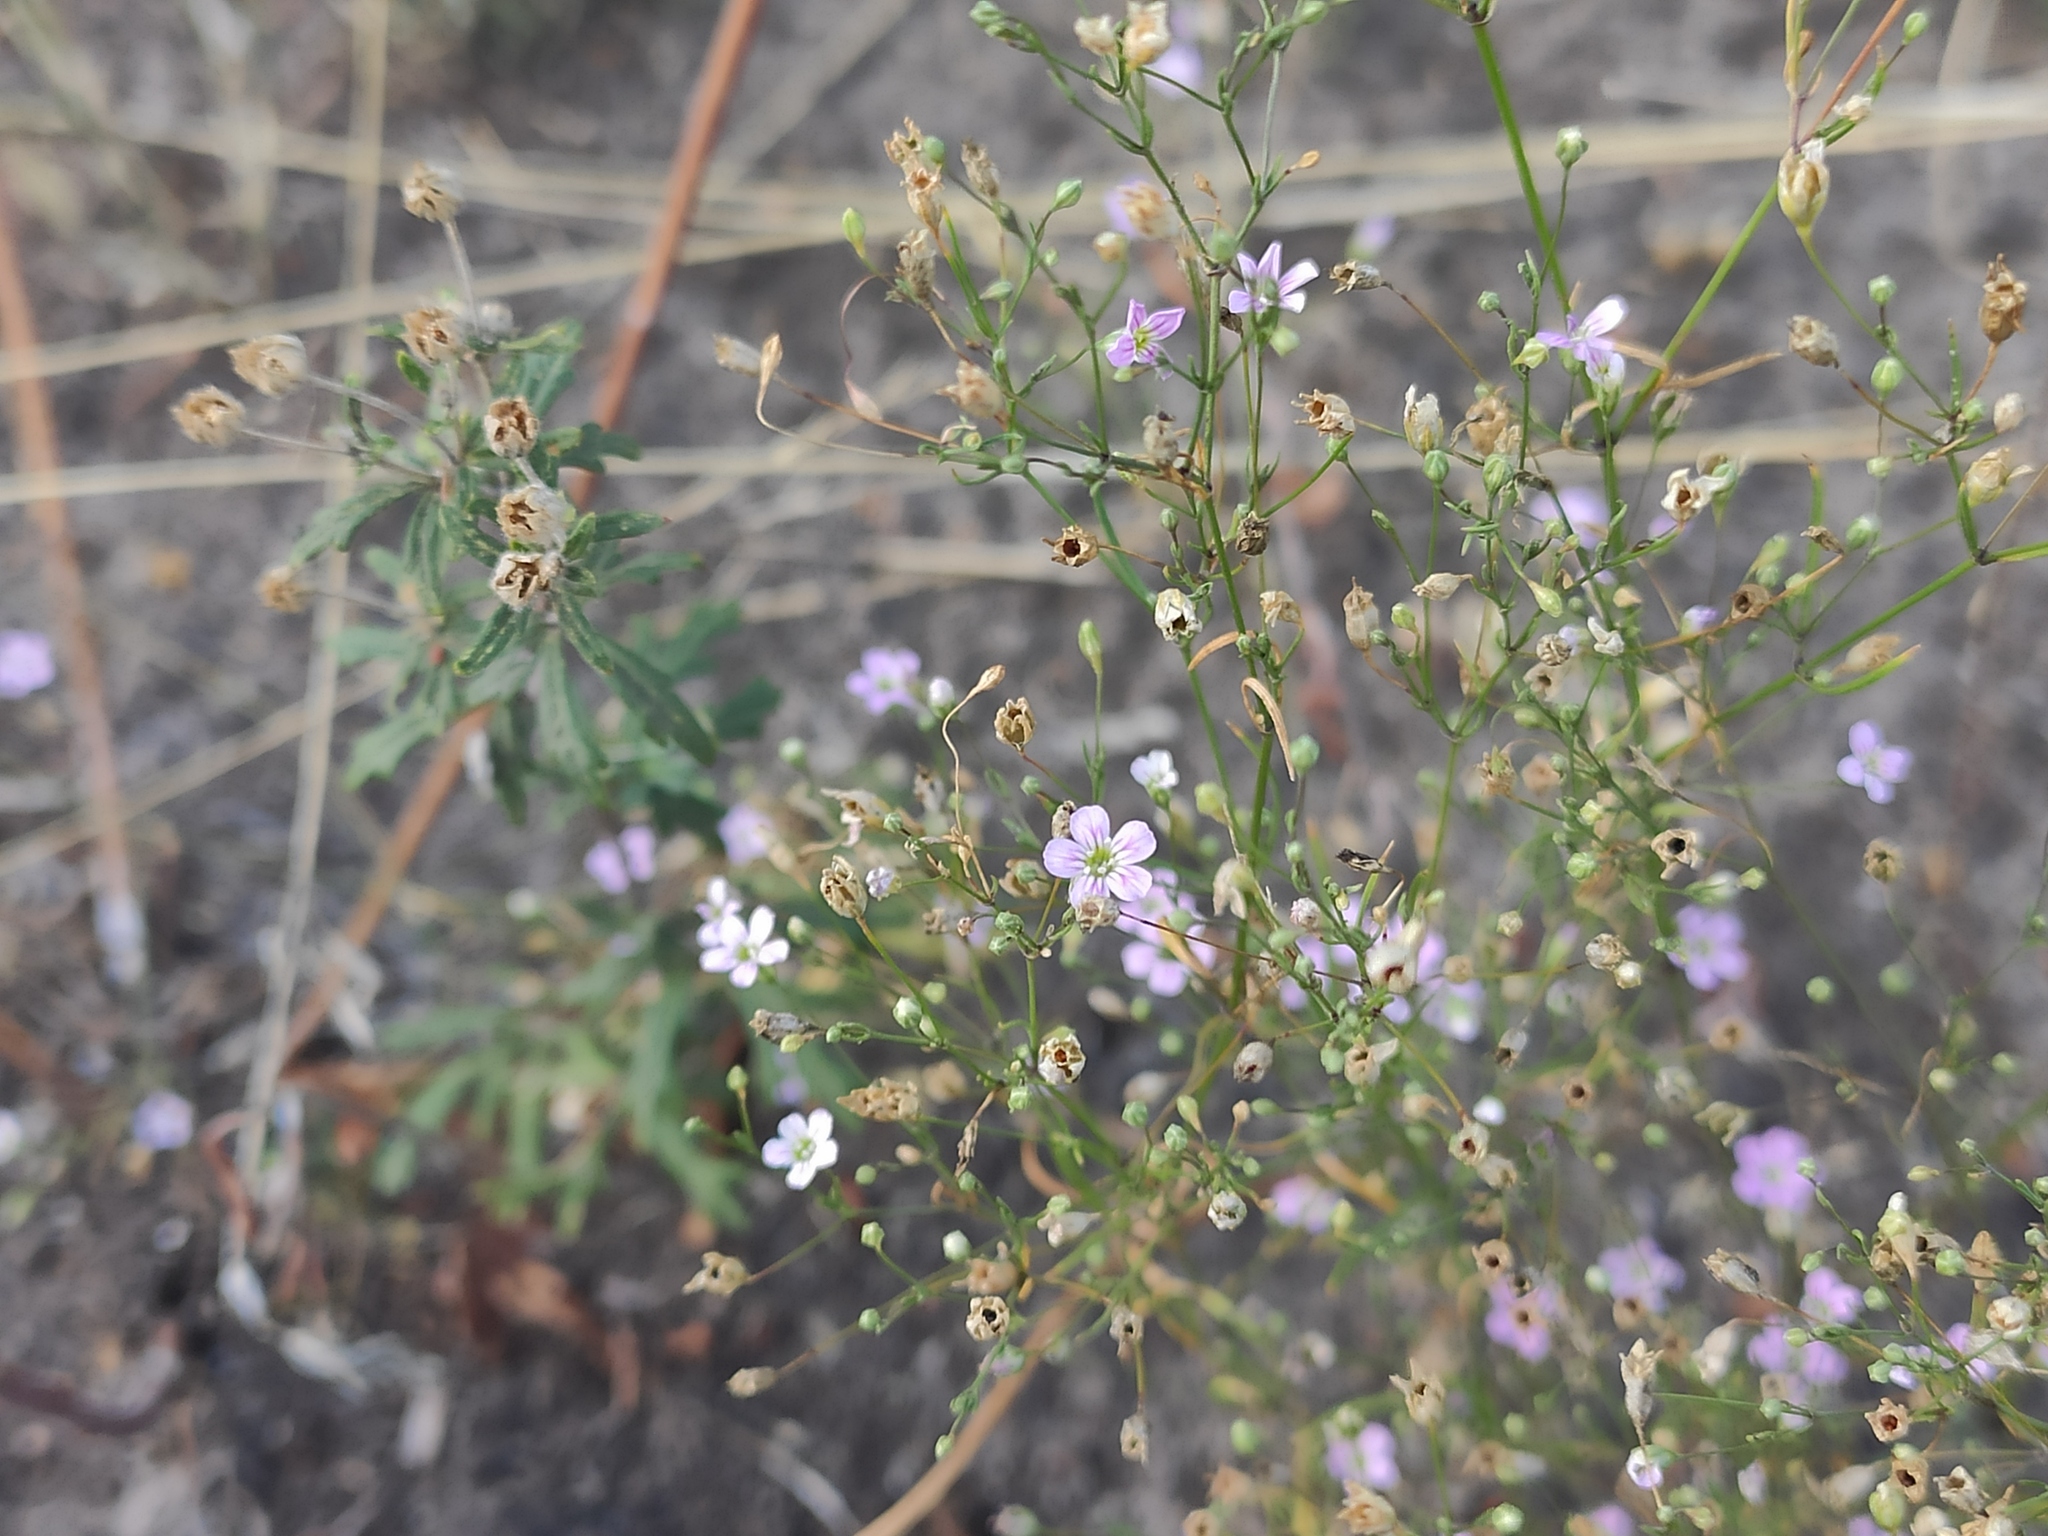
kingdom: Plantae
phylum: Tracheophyta
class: Magnoliopsida
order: Caryophyllales
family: Caryophyllaceae
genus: Psammophiliella
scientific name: Psammophiliella muralis
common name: Cushion baby's-breath
